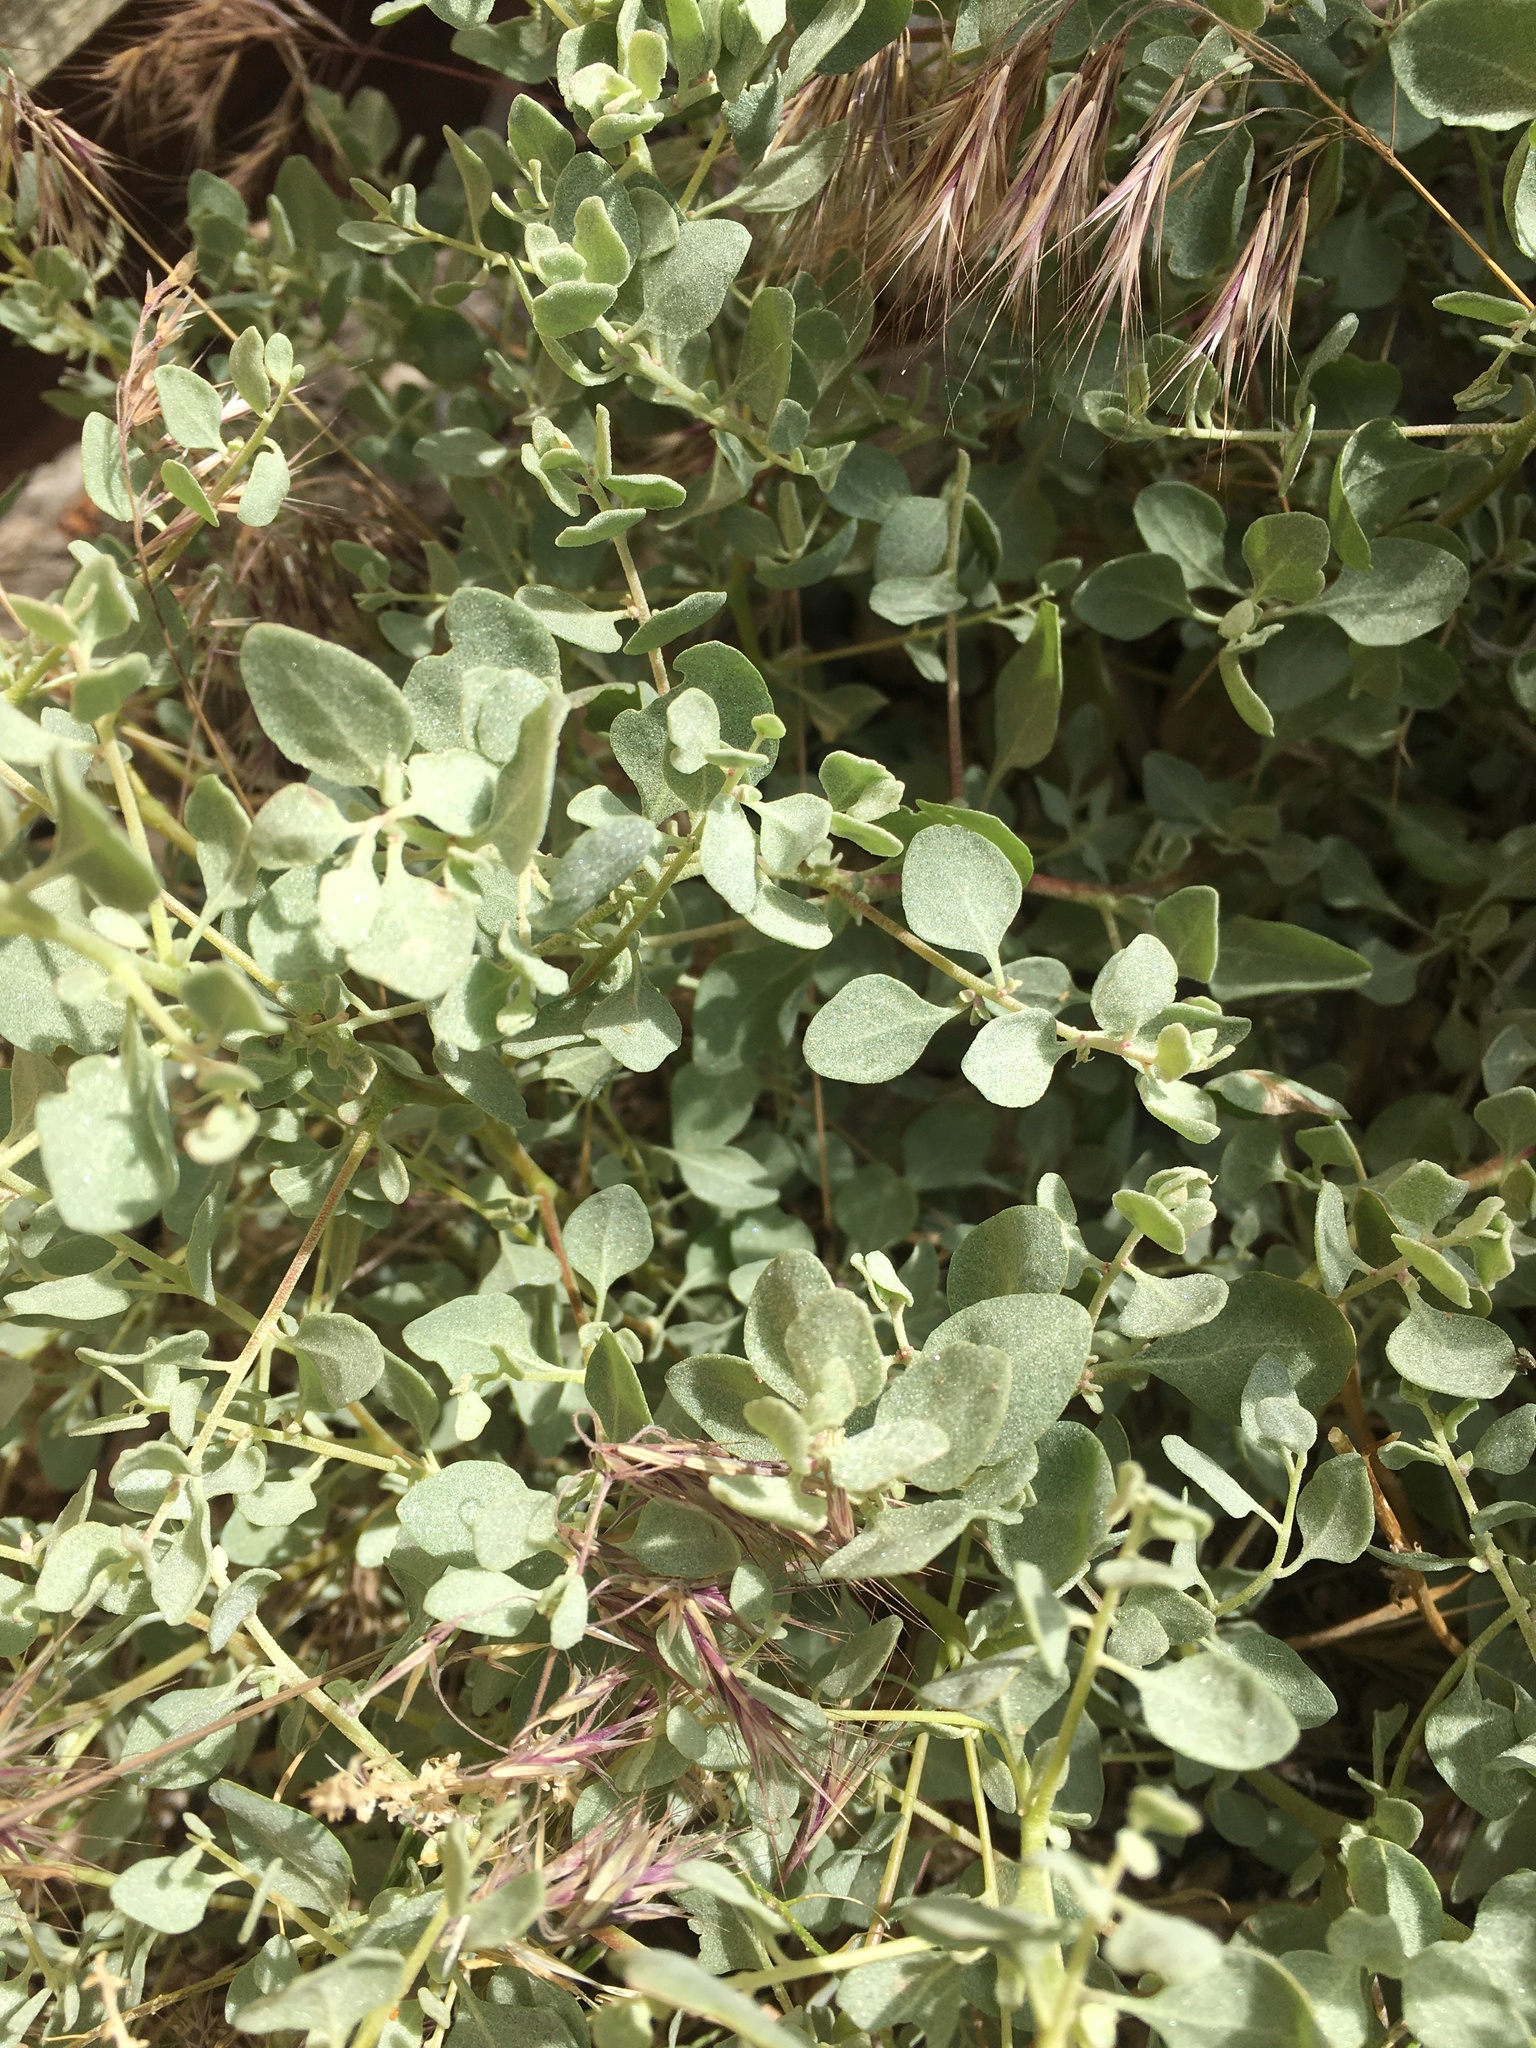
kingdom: Plantae
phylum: Tracheophyta
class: Magnoliopsida
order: Caryophyllales
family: Amaranthaceae
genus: Atriplex
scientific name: Atriplex confertifolia
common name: Shadscale
